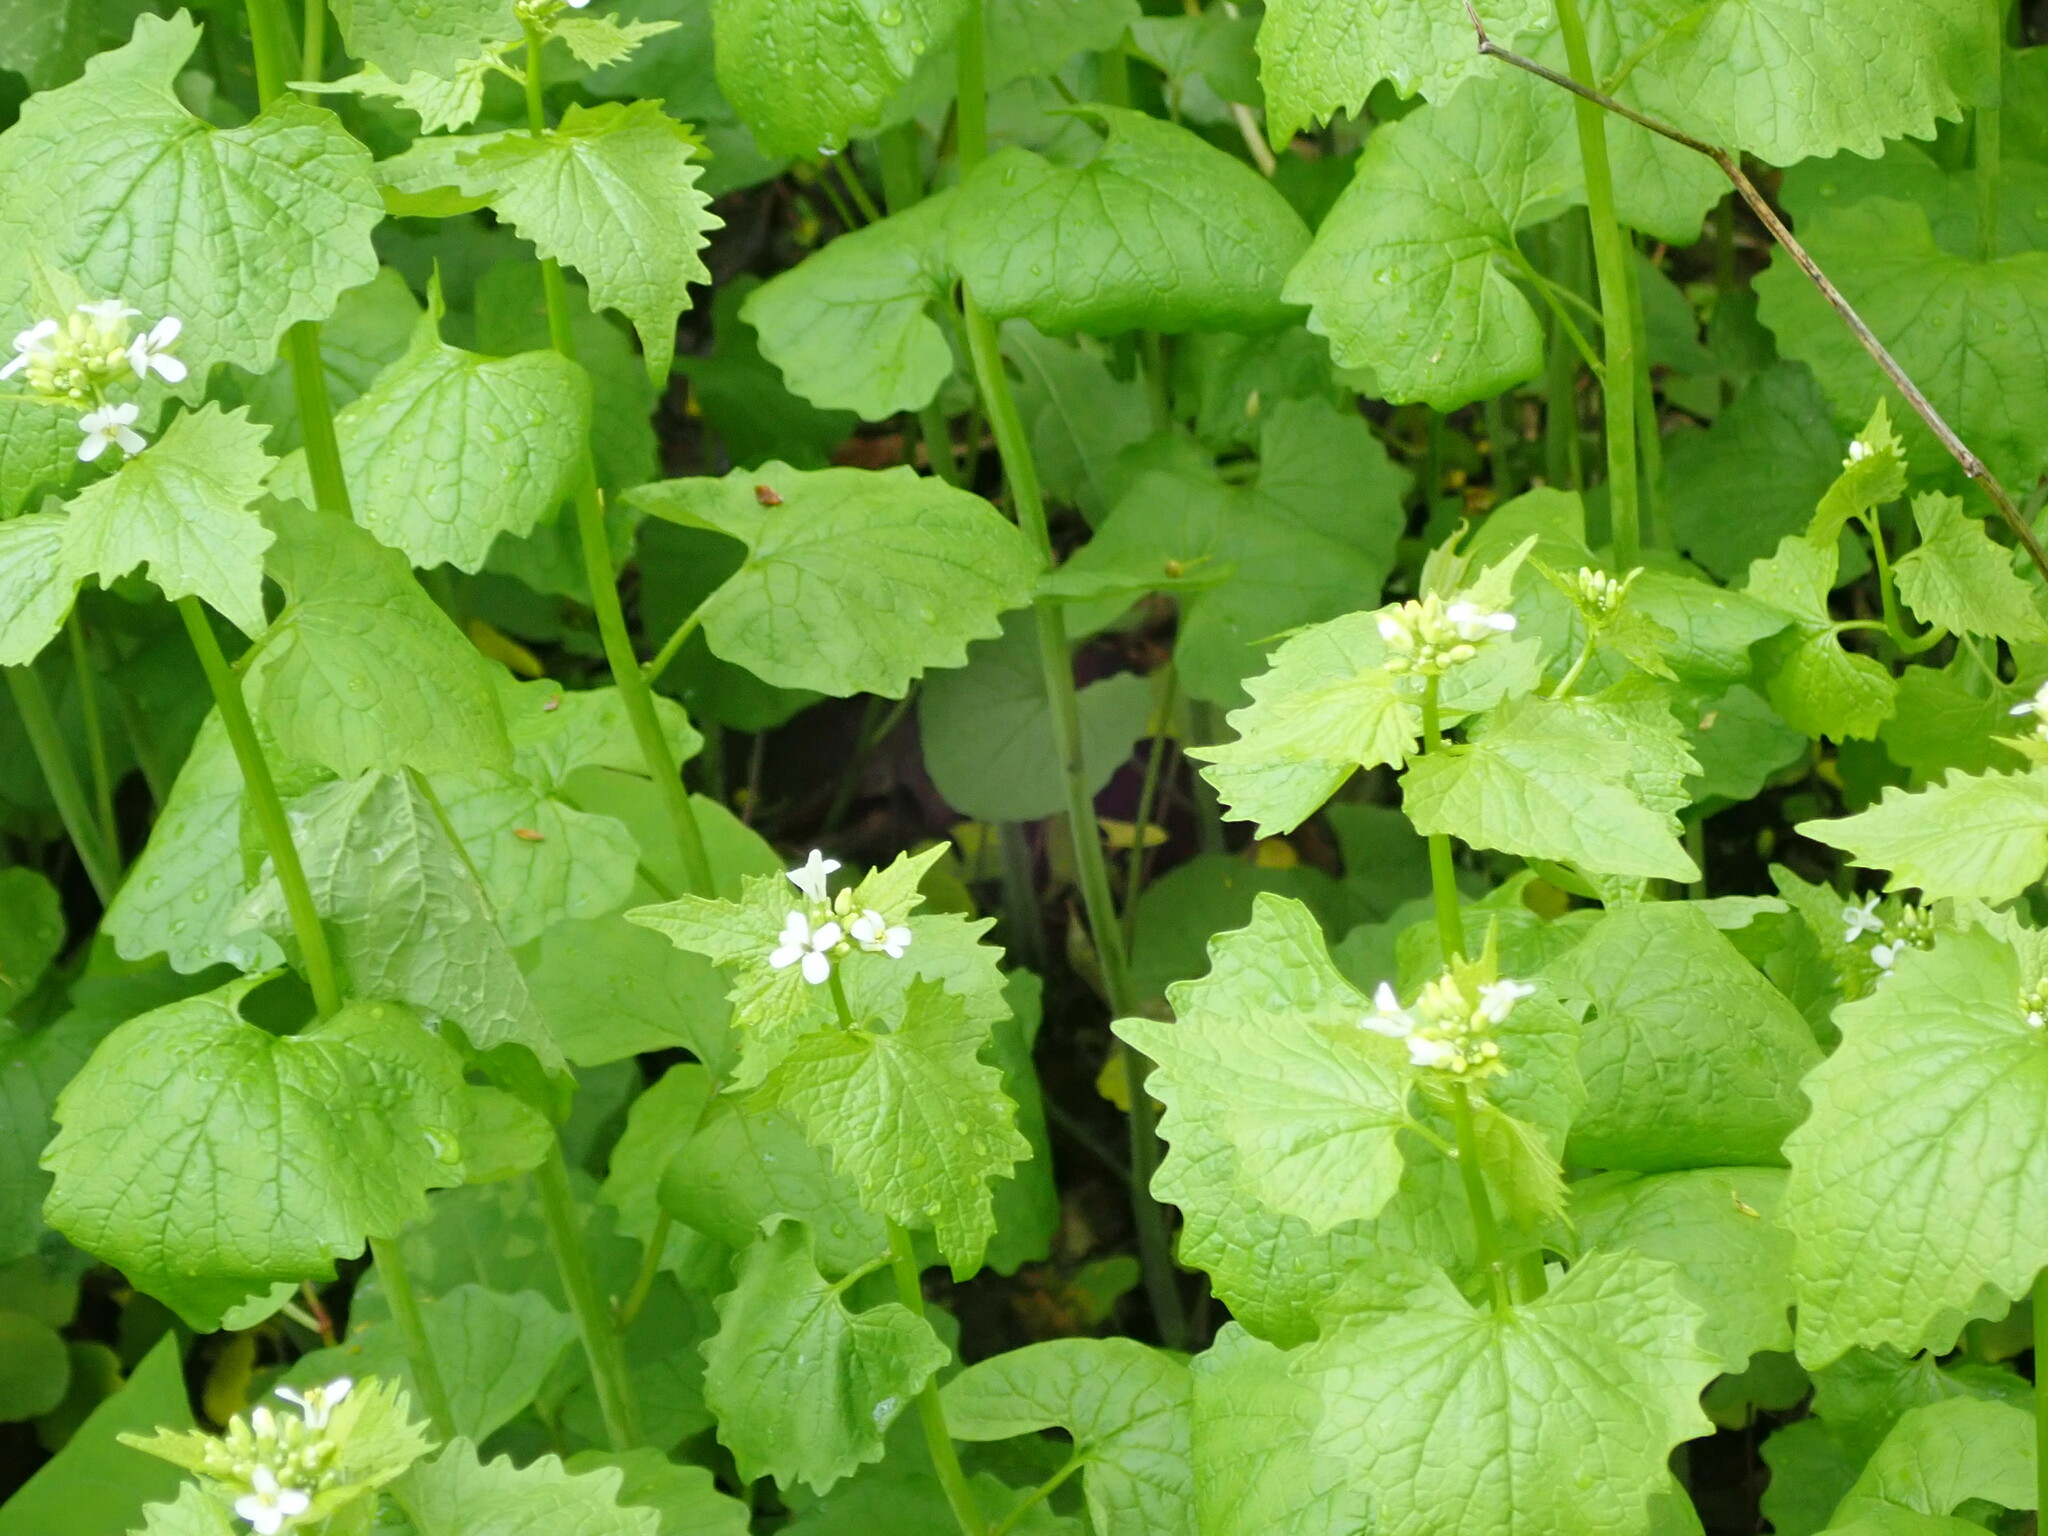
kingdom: Plantae
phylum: Tracheophyta
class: Magnoliopsida
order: Brassicales
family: Brassicaceae
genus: Alliaria
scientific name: Alliaria petiolata
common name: Garlic mustard
